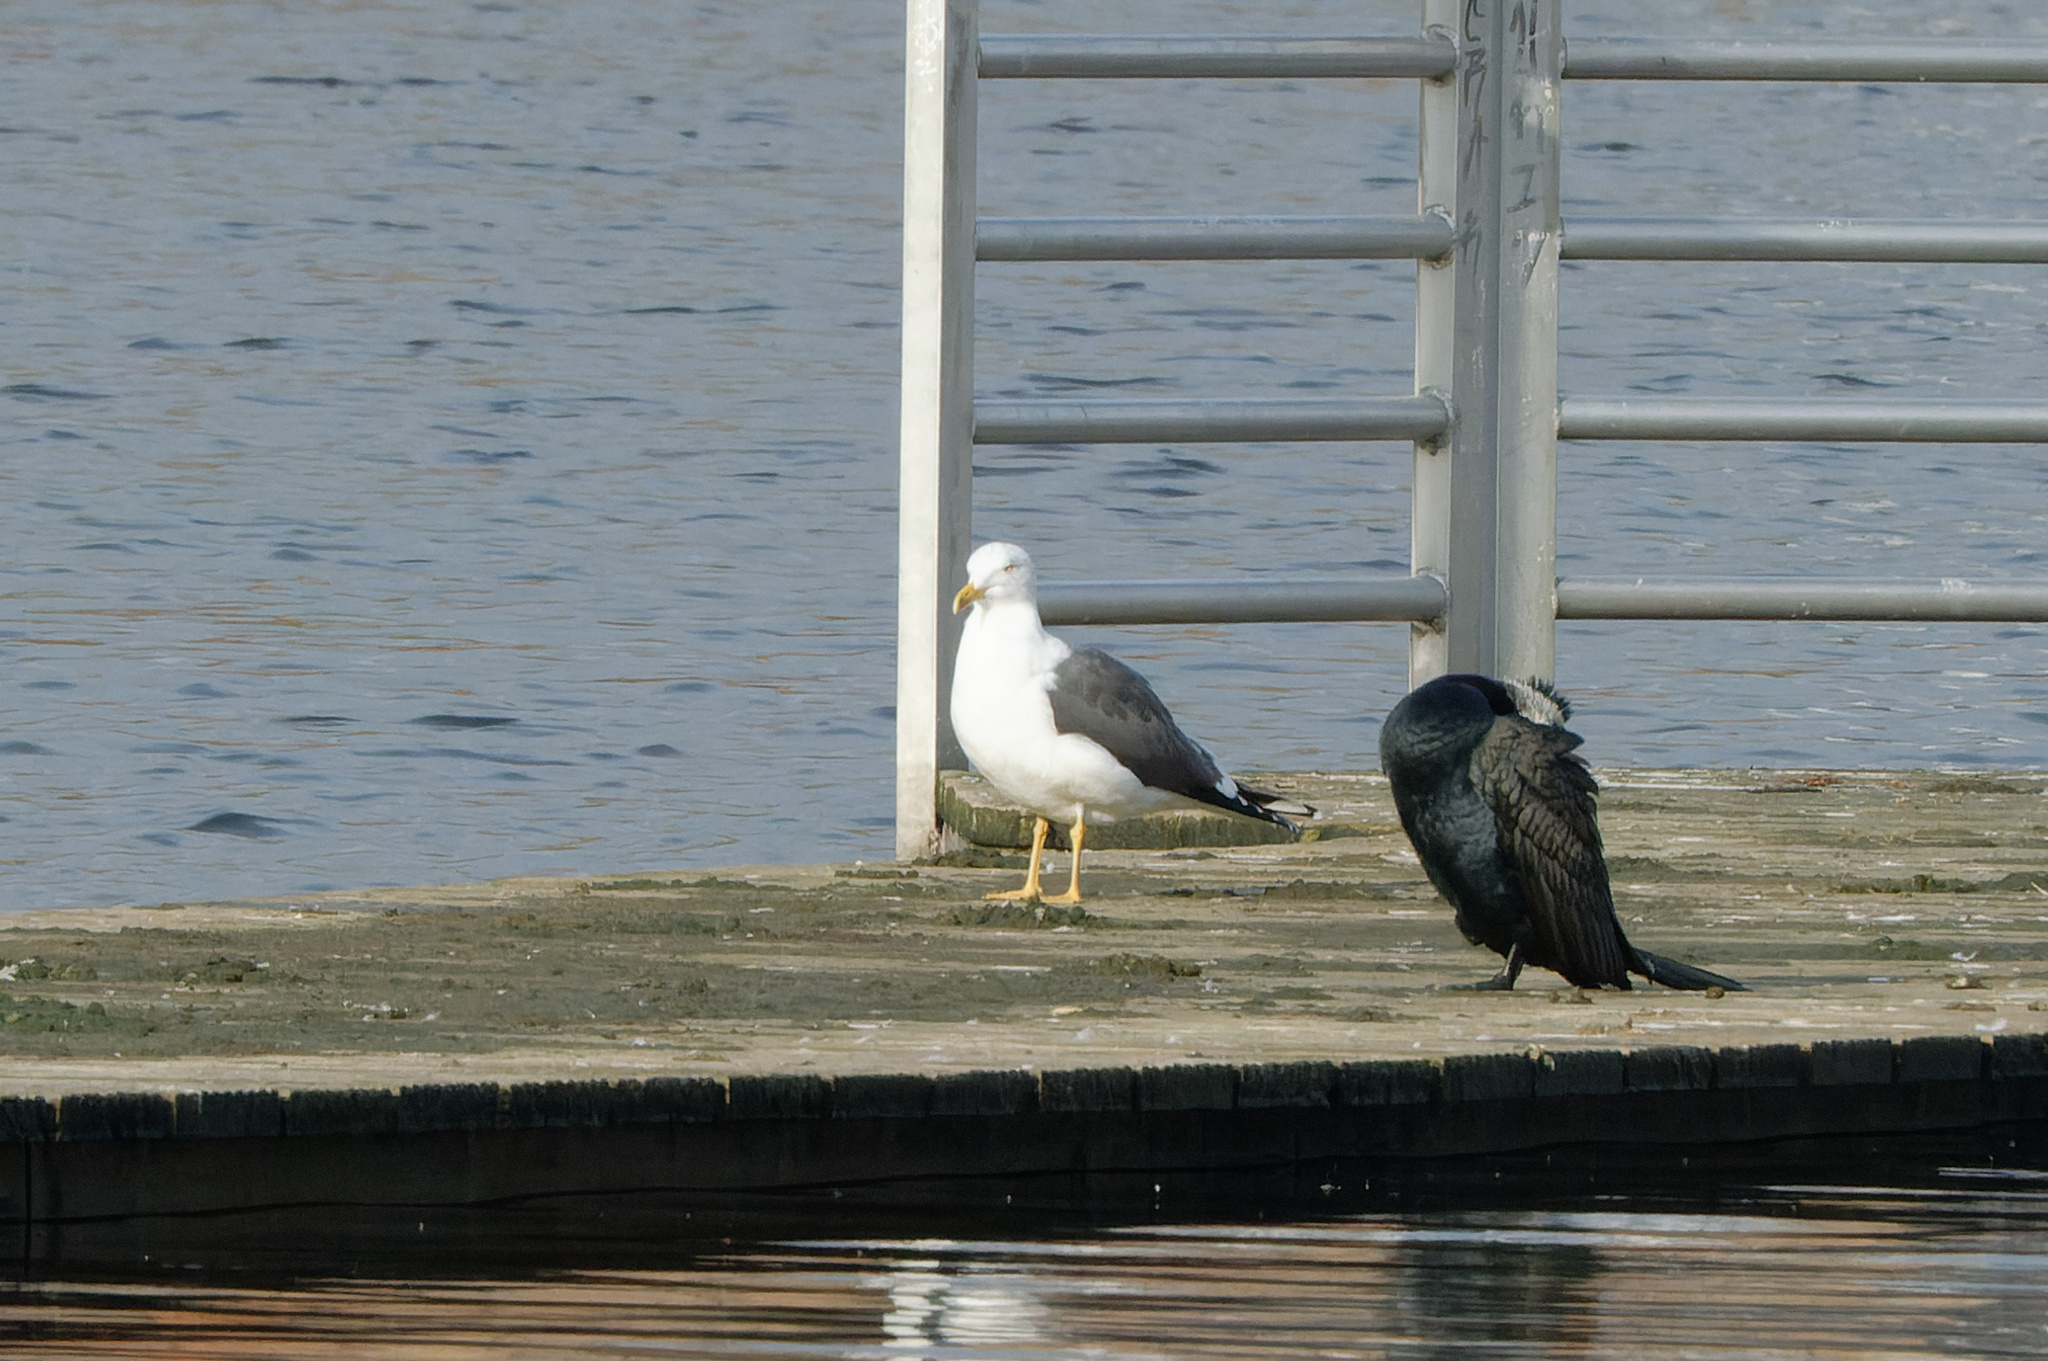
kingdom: Animalia
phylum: Chordata
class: Aves
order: Charadriiformes
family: Laridae
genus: Larus
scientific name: Larus fuscus
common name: Lesser black-backed gull
